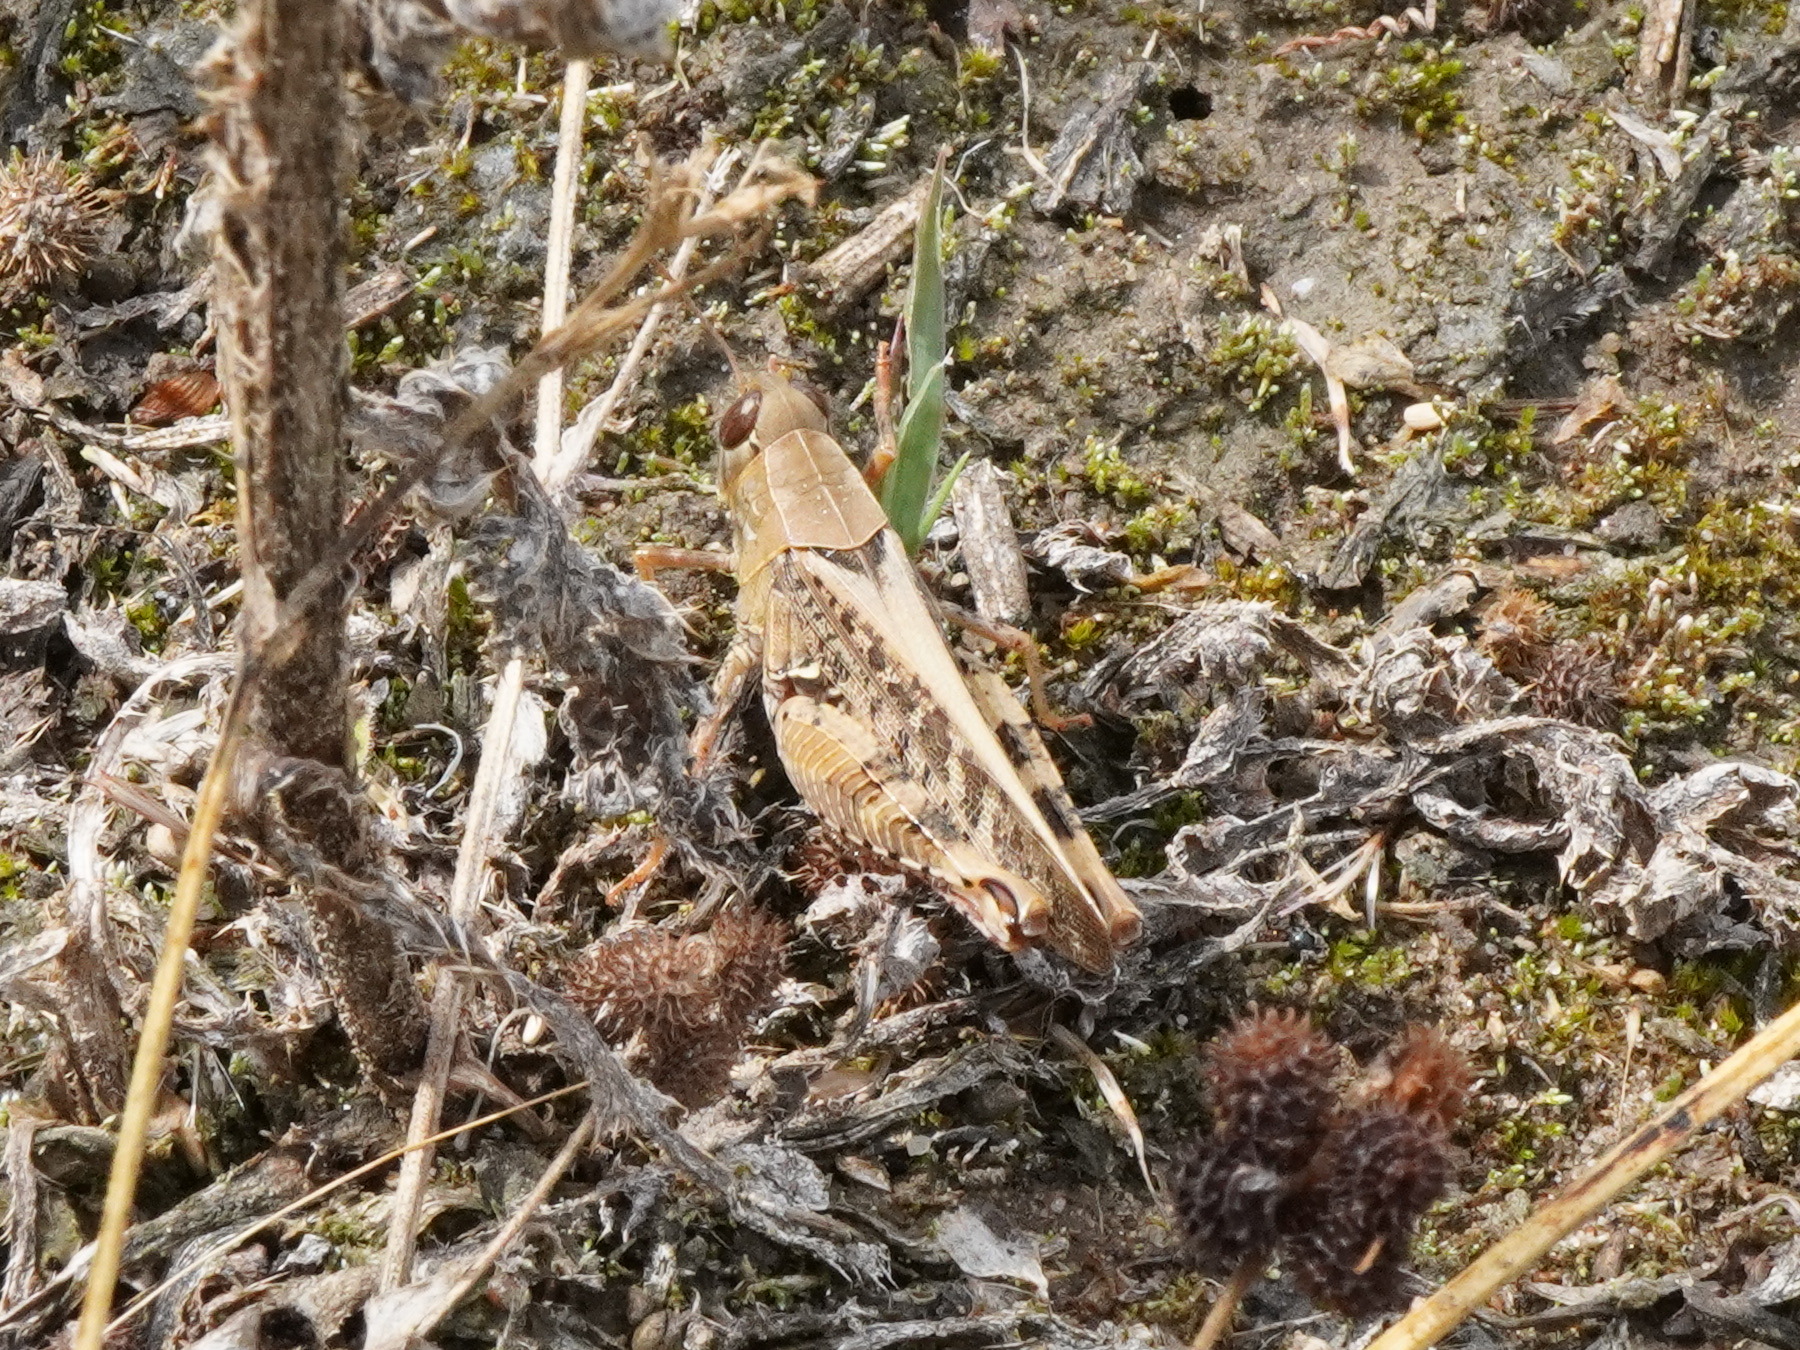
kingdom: Animalia
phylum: Arthropoda
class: Insecta
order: Orthoptera
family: Acrididae
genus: Calliptamus
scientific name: Calliptamus italicus
